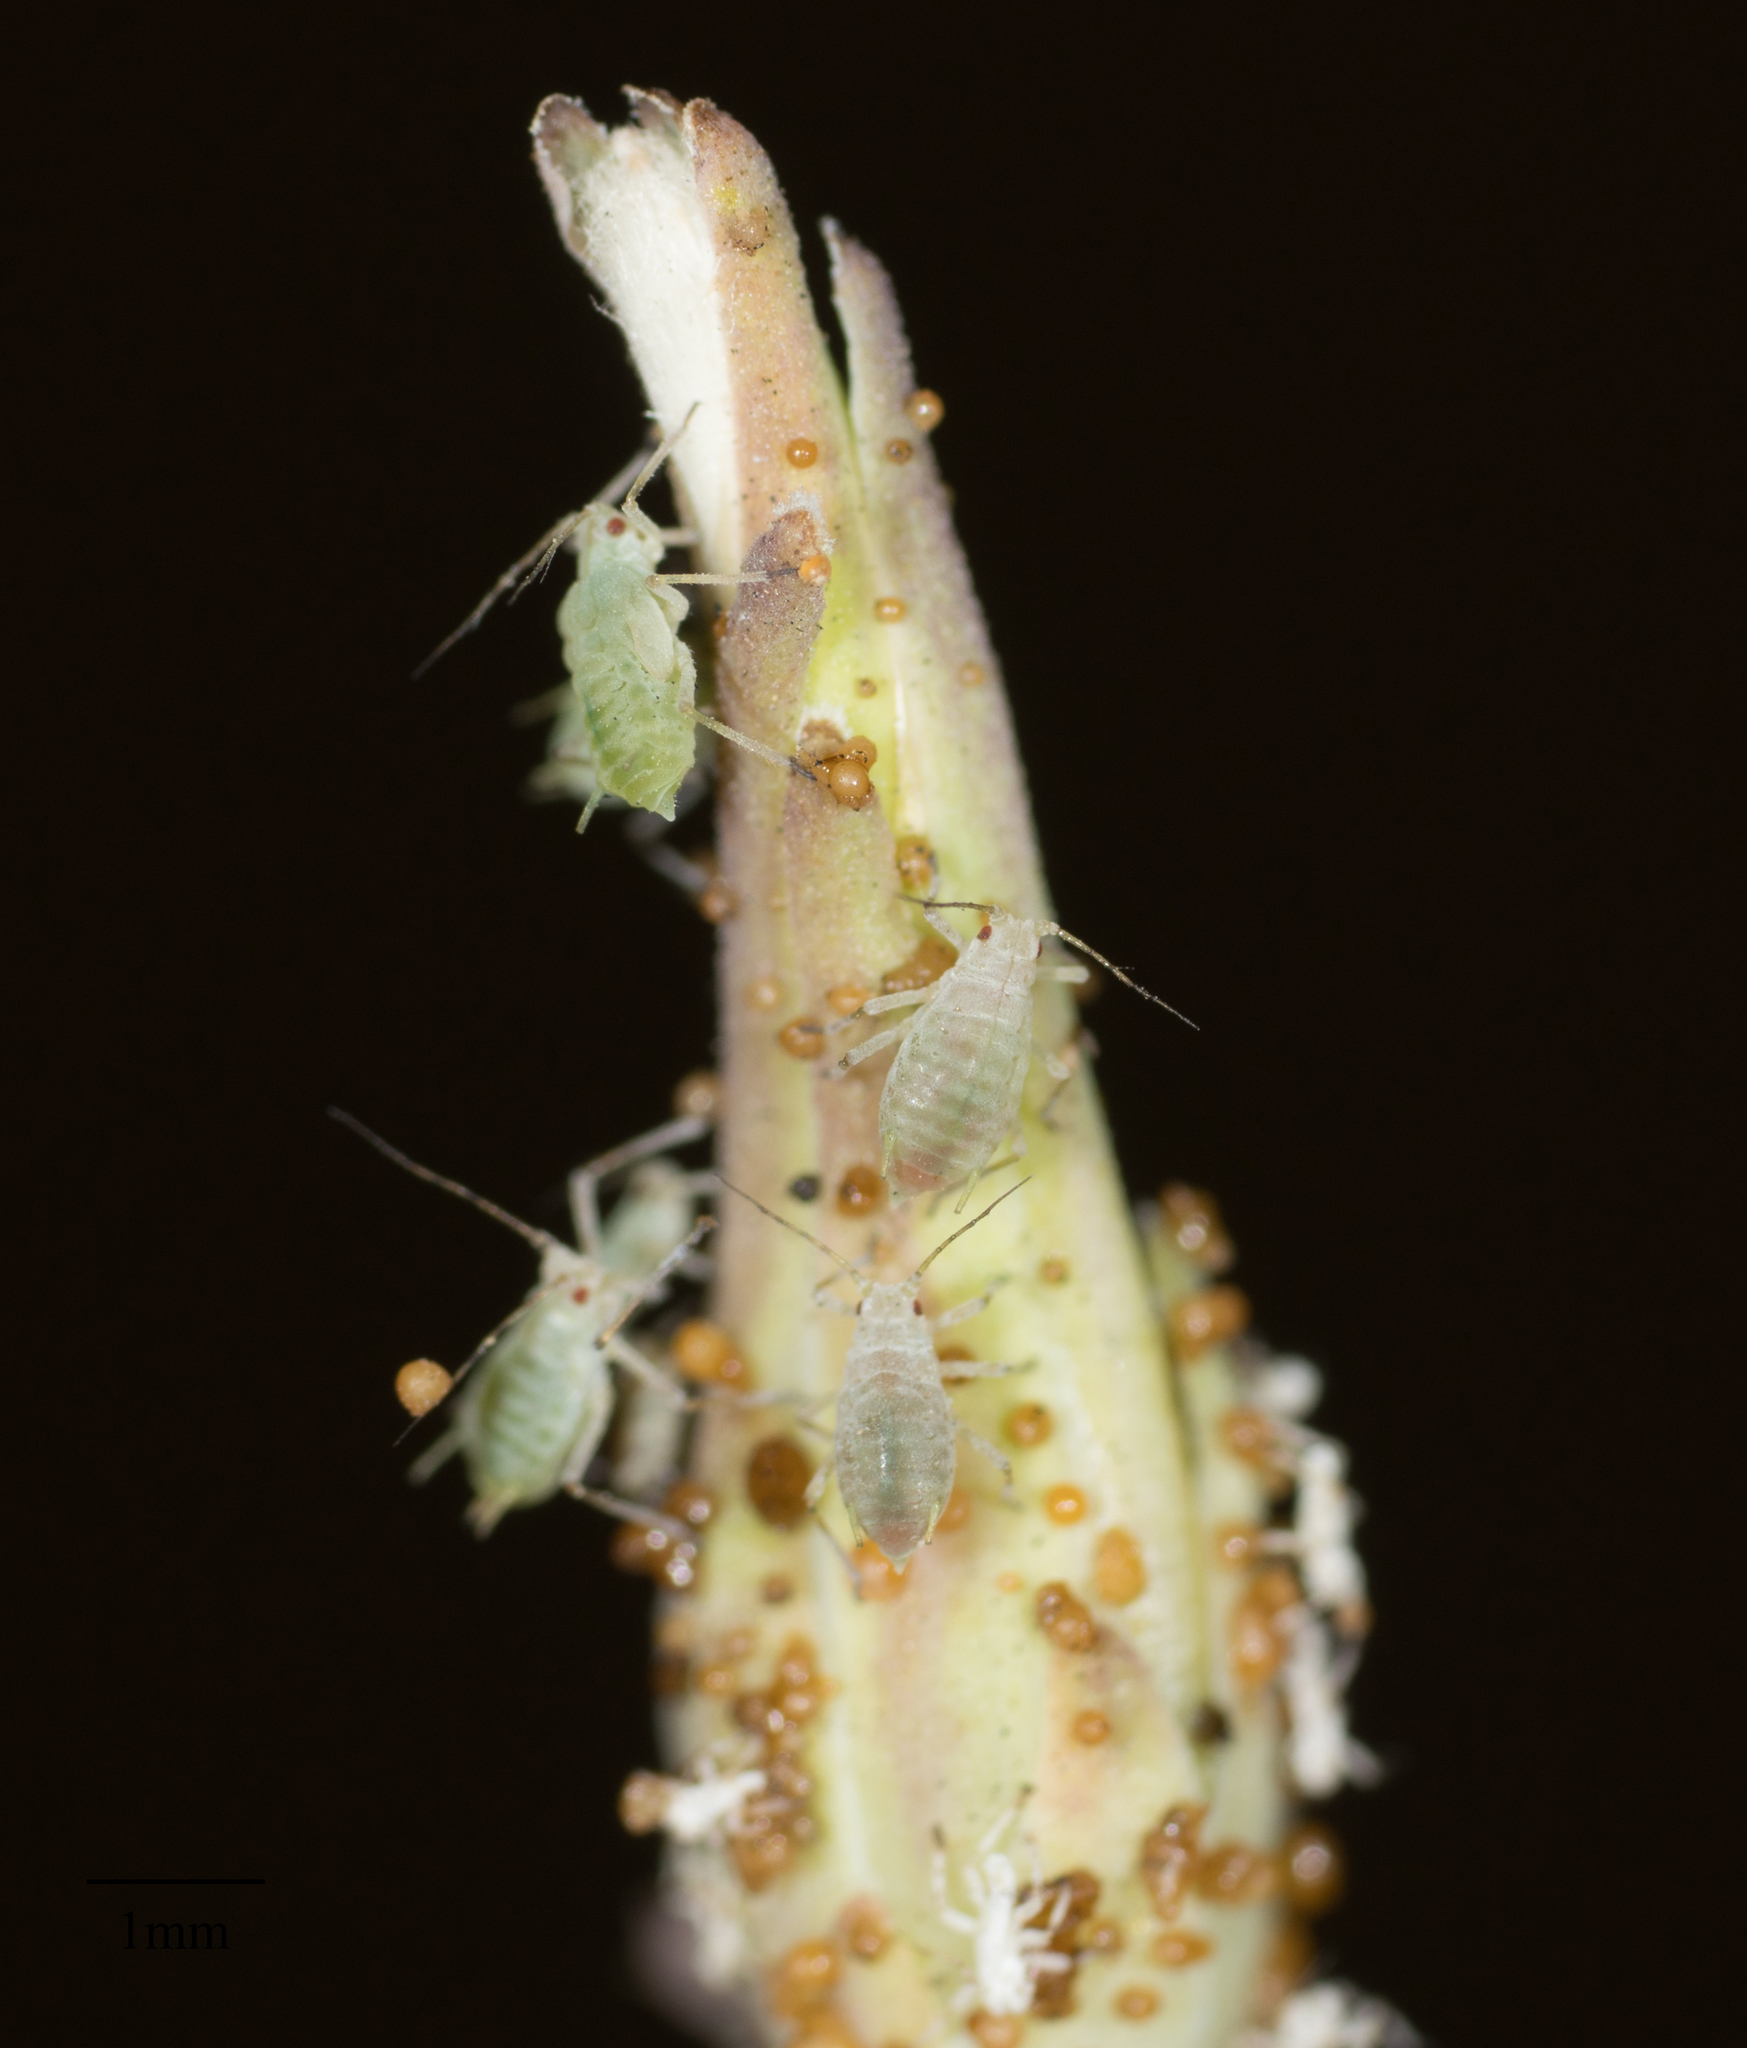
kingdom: Animalia
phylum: Arthropoda
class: Insecta
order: Hemiptera
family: Aphididae
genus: Acyrthosiphon
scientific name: Acyrthosiphon lactucae
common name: Aphid
